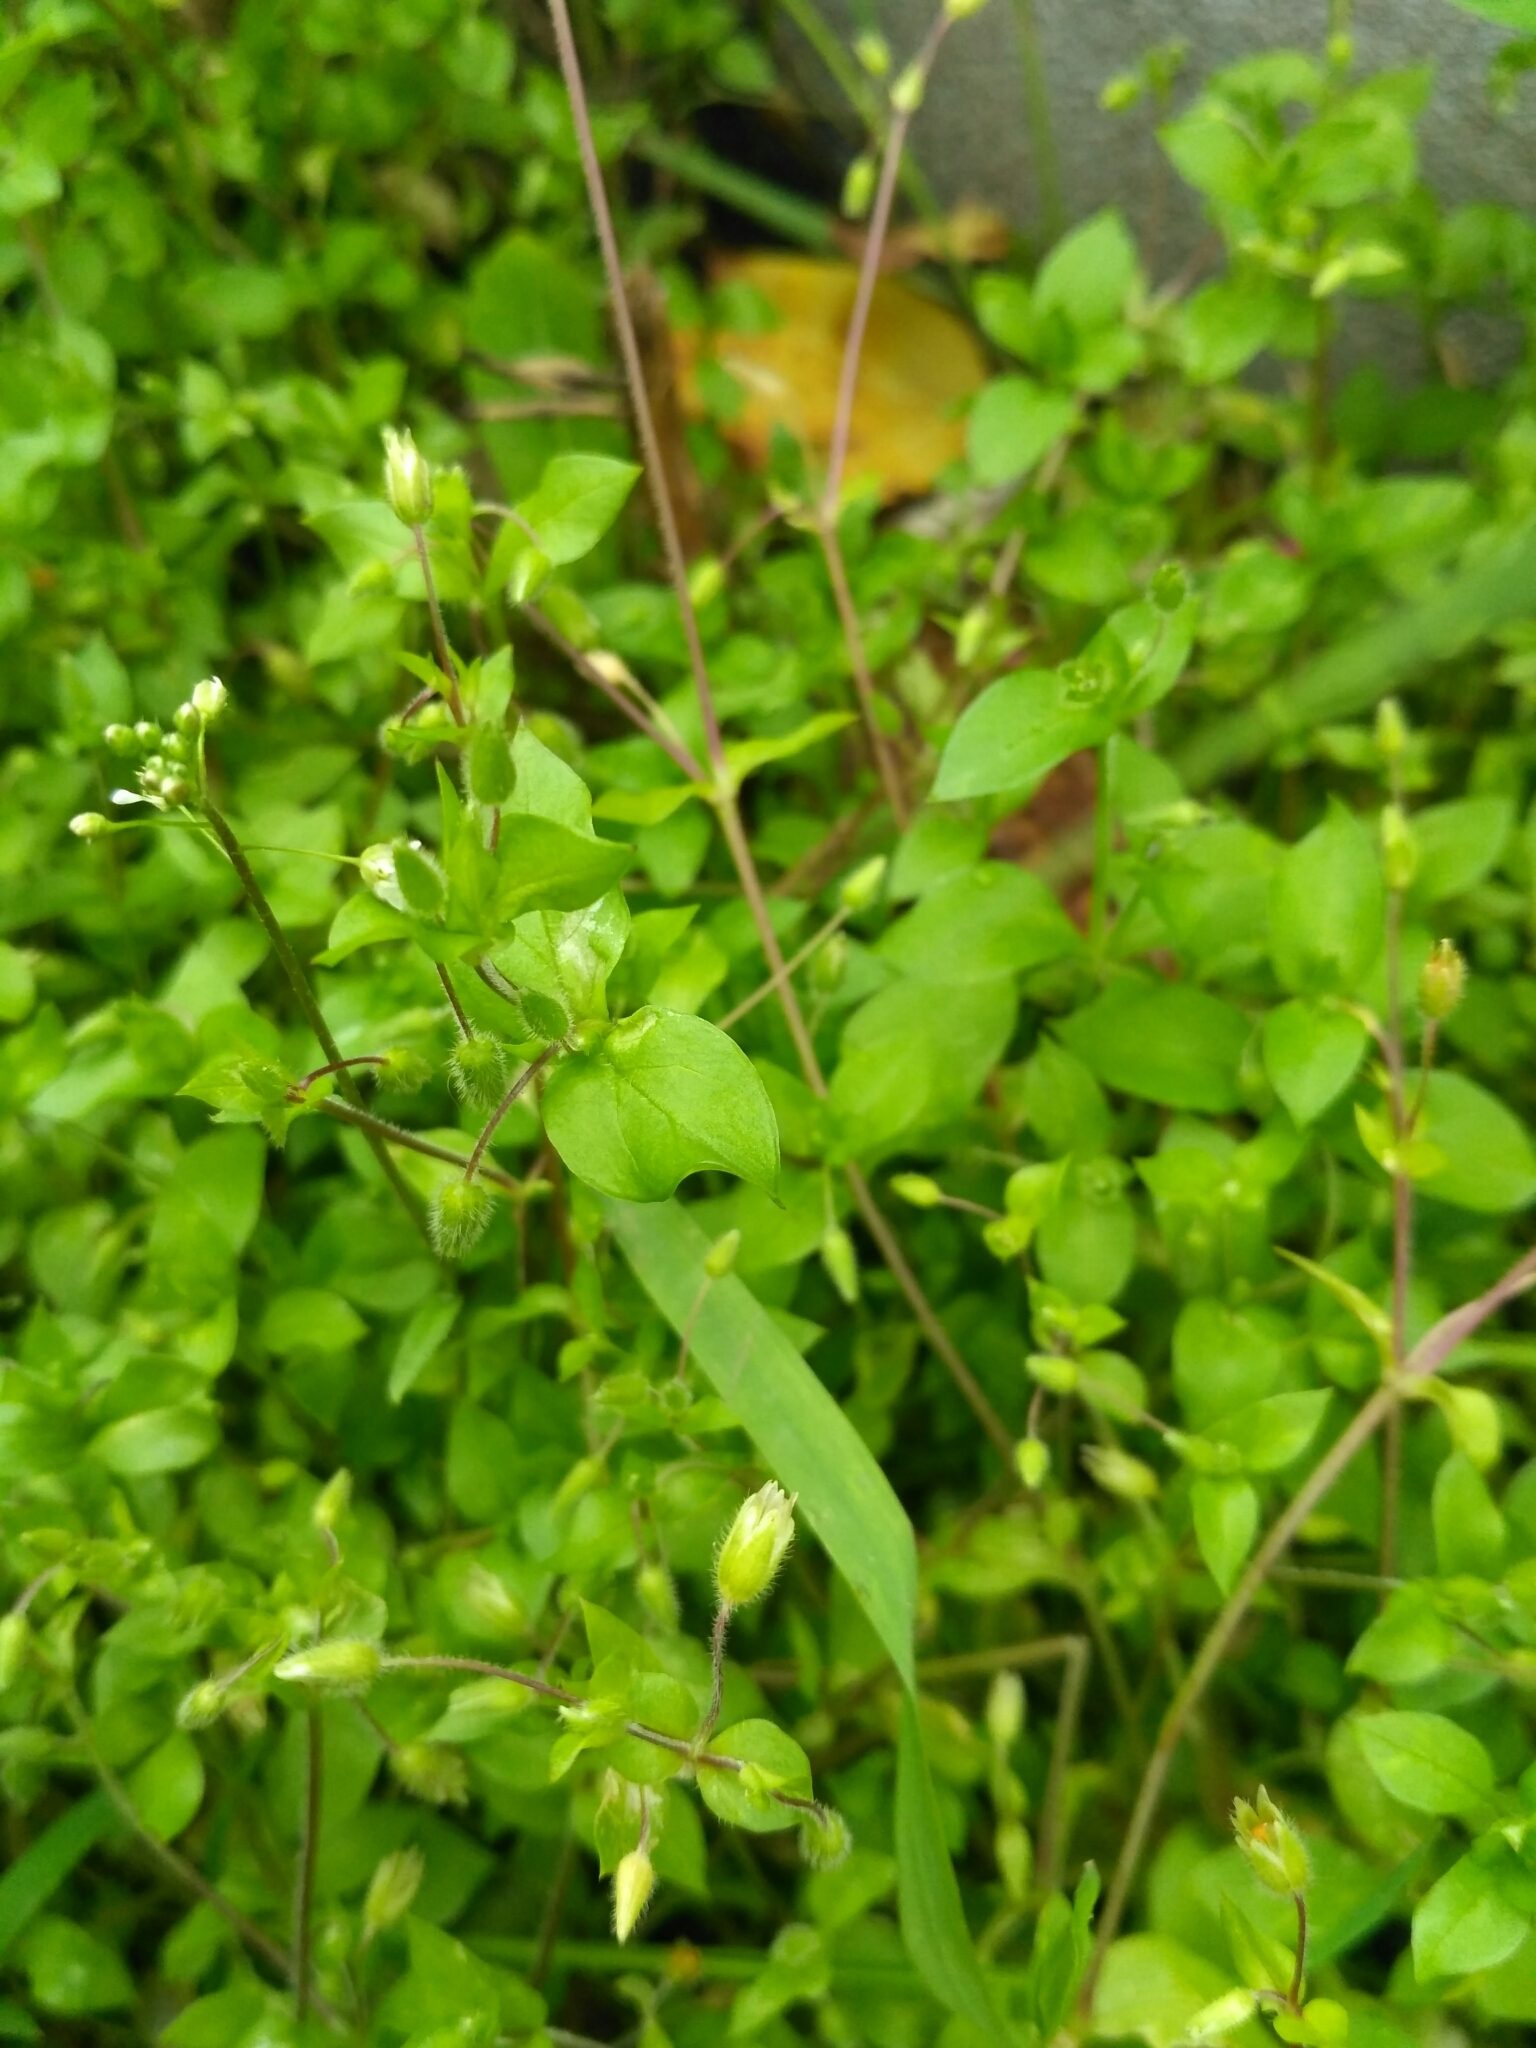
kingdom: Plantae
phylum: Tracheophyta
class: Magnoliopsida
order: Caryophyllales
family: Caryophyllaceae
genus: Stellaria
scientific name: Stellaria media
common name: Common chickweed
